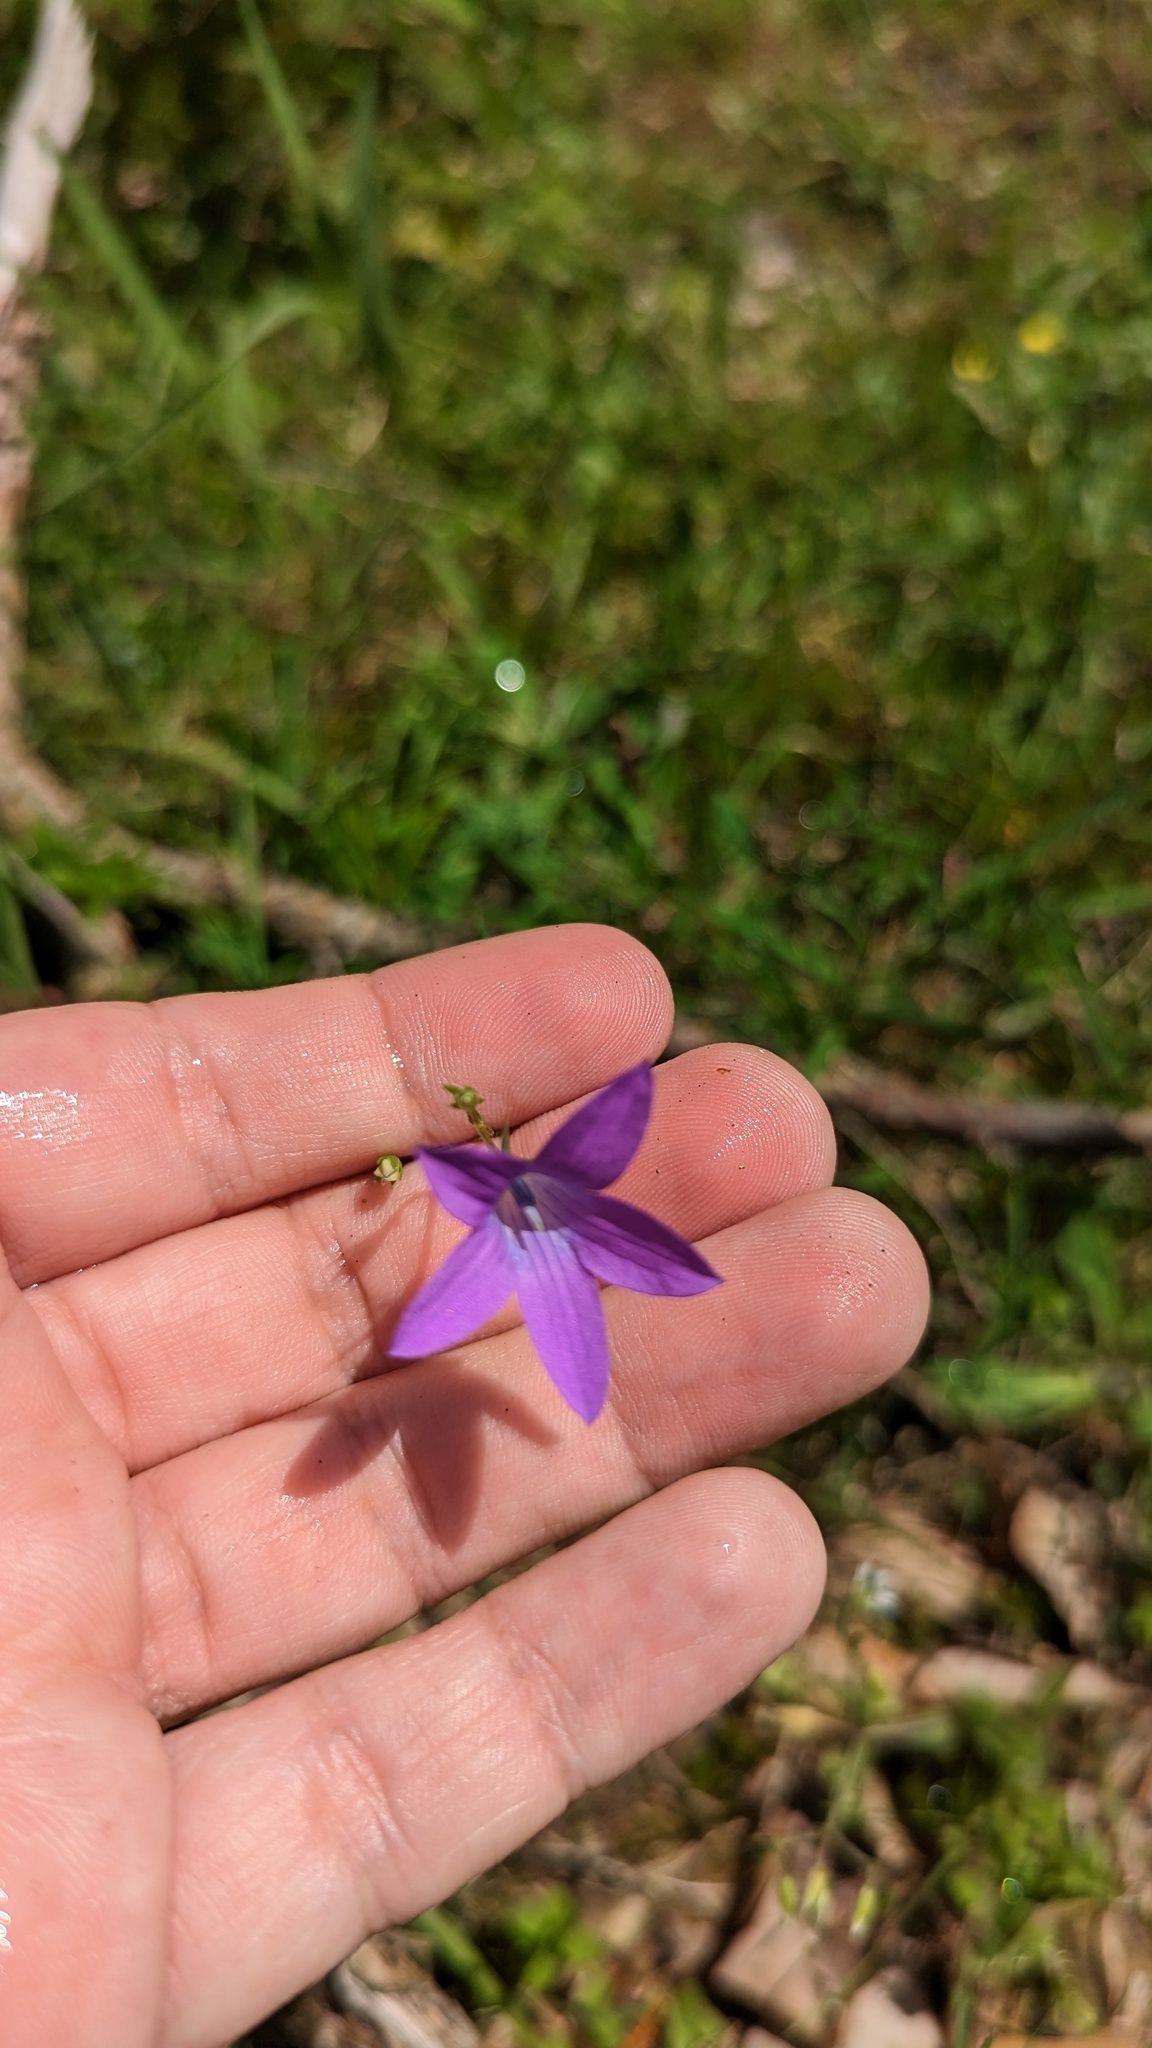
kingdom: Plantae
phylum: Tracheophyta
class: Magnoliopsida
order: Asterales
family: Campanulaceae
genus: Campanula
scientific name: Campanula patula
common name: Spreading bellflower
